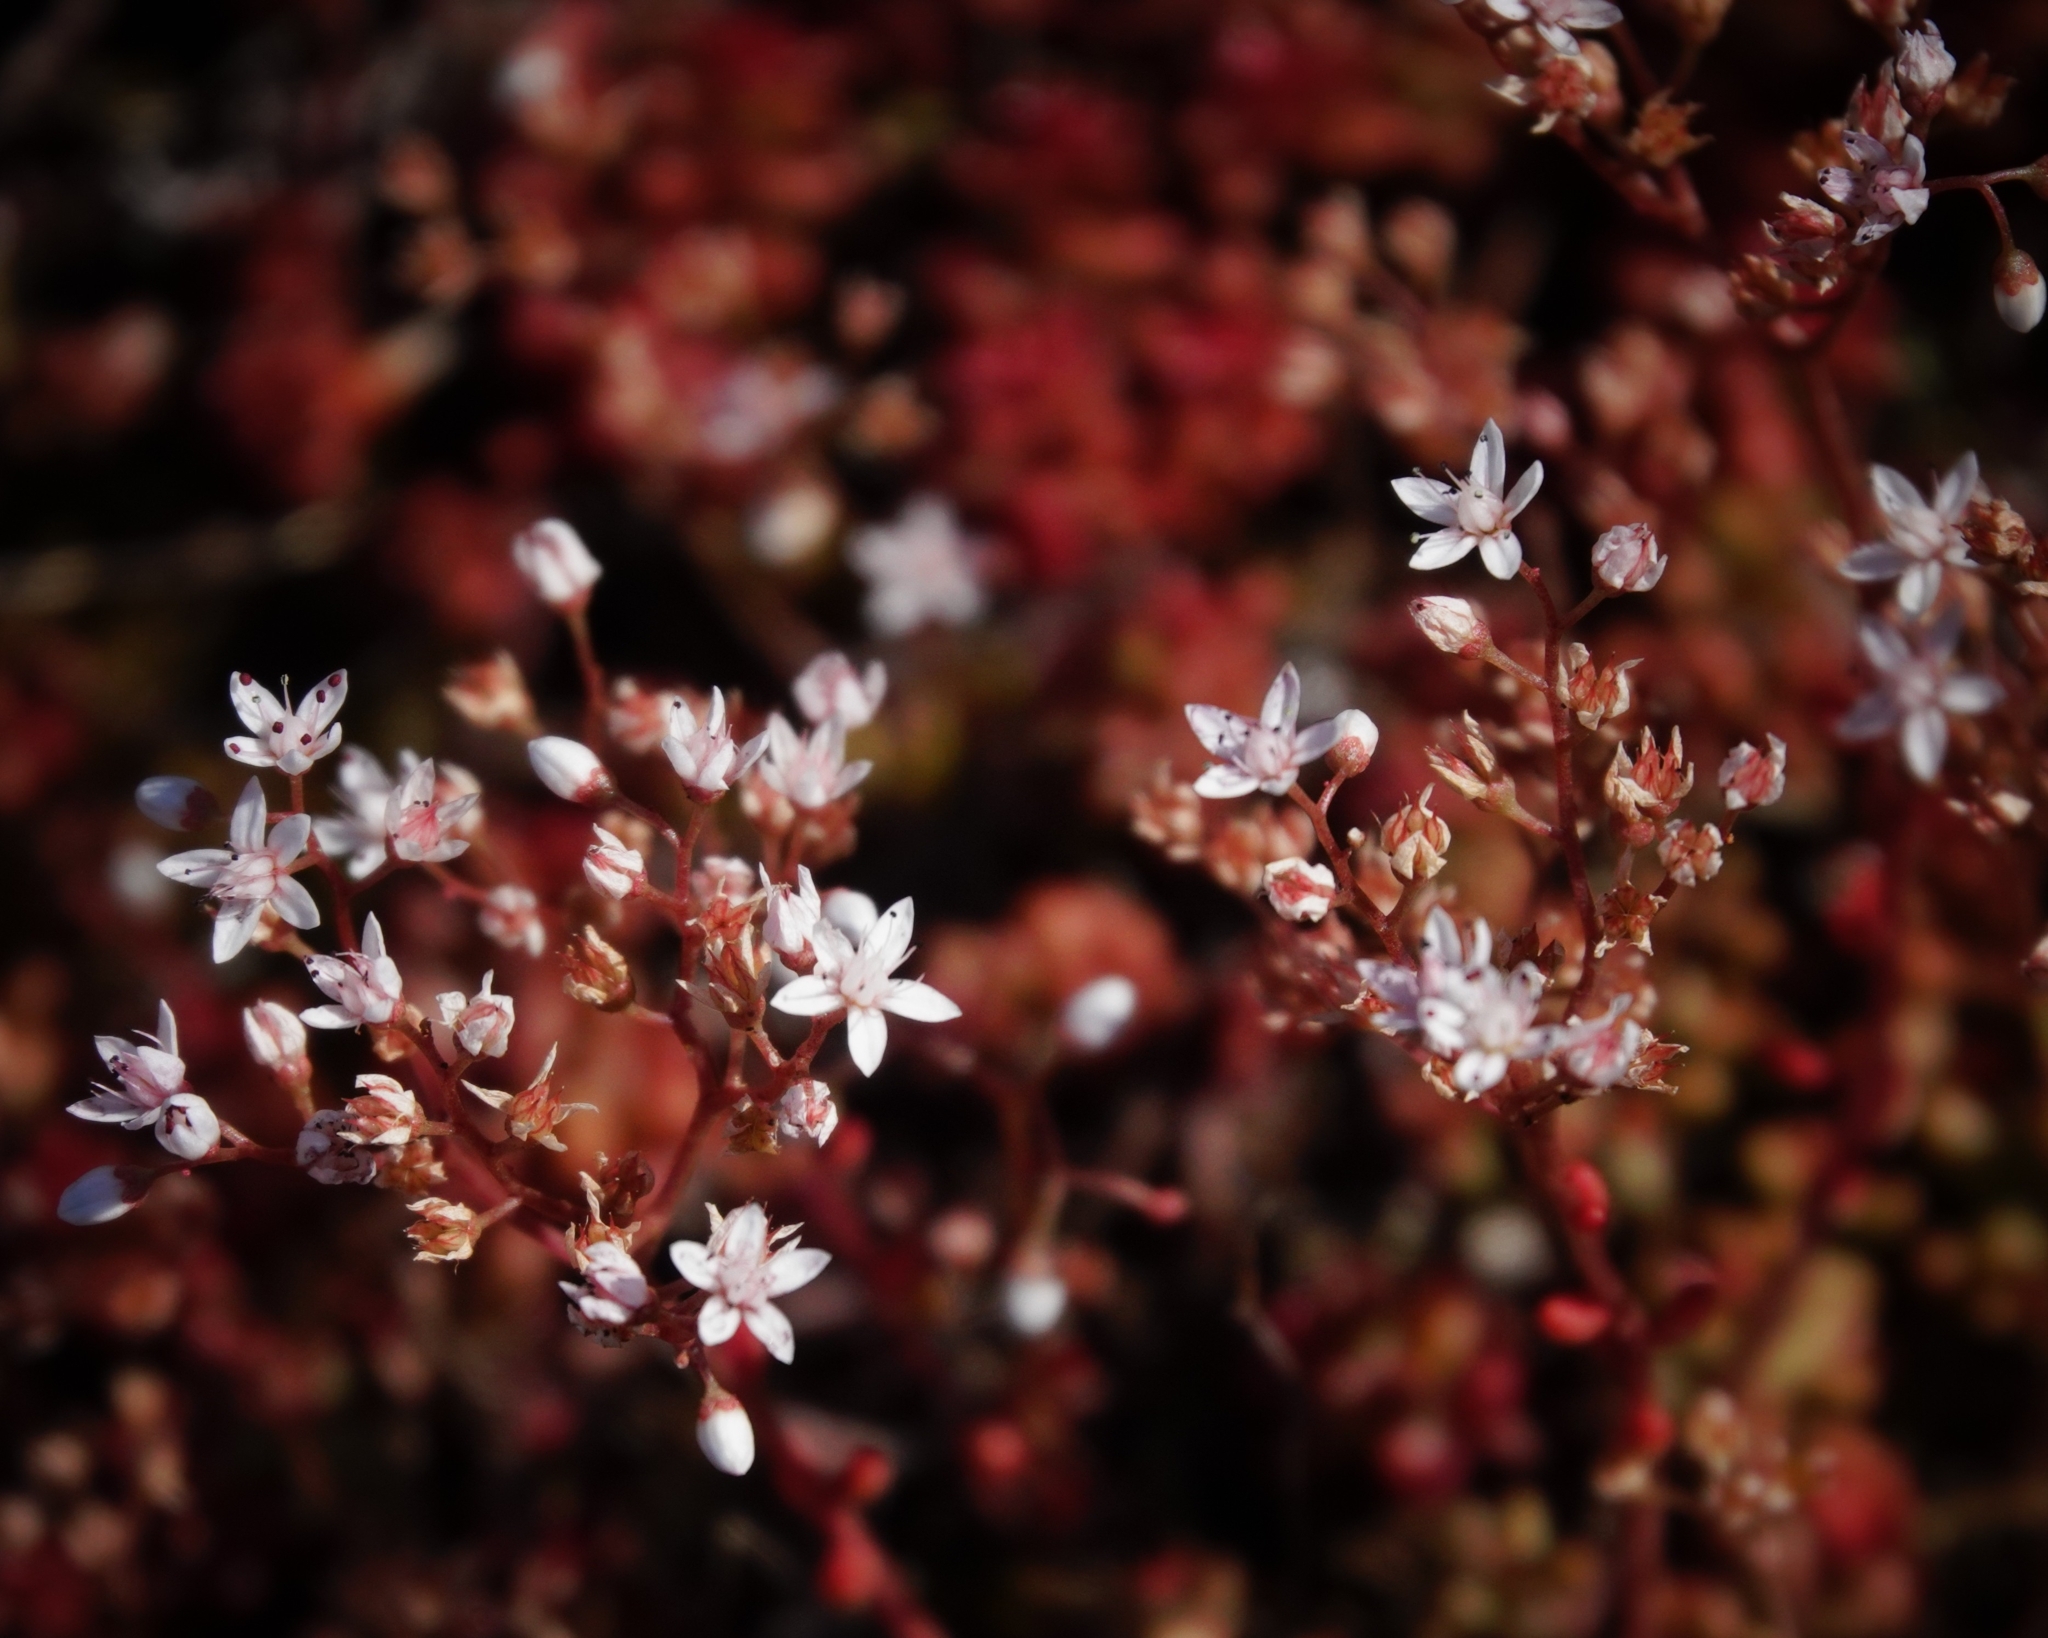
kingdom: Plantae
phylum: Tracheophyta
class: Magnoliopsida
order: Saxifragales
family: Crassulaceae
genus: Sedum
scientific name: Sedum album
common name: White stonecrop
